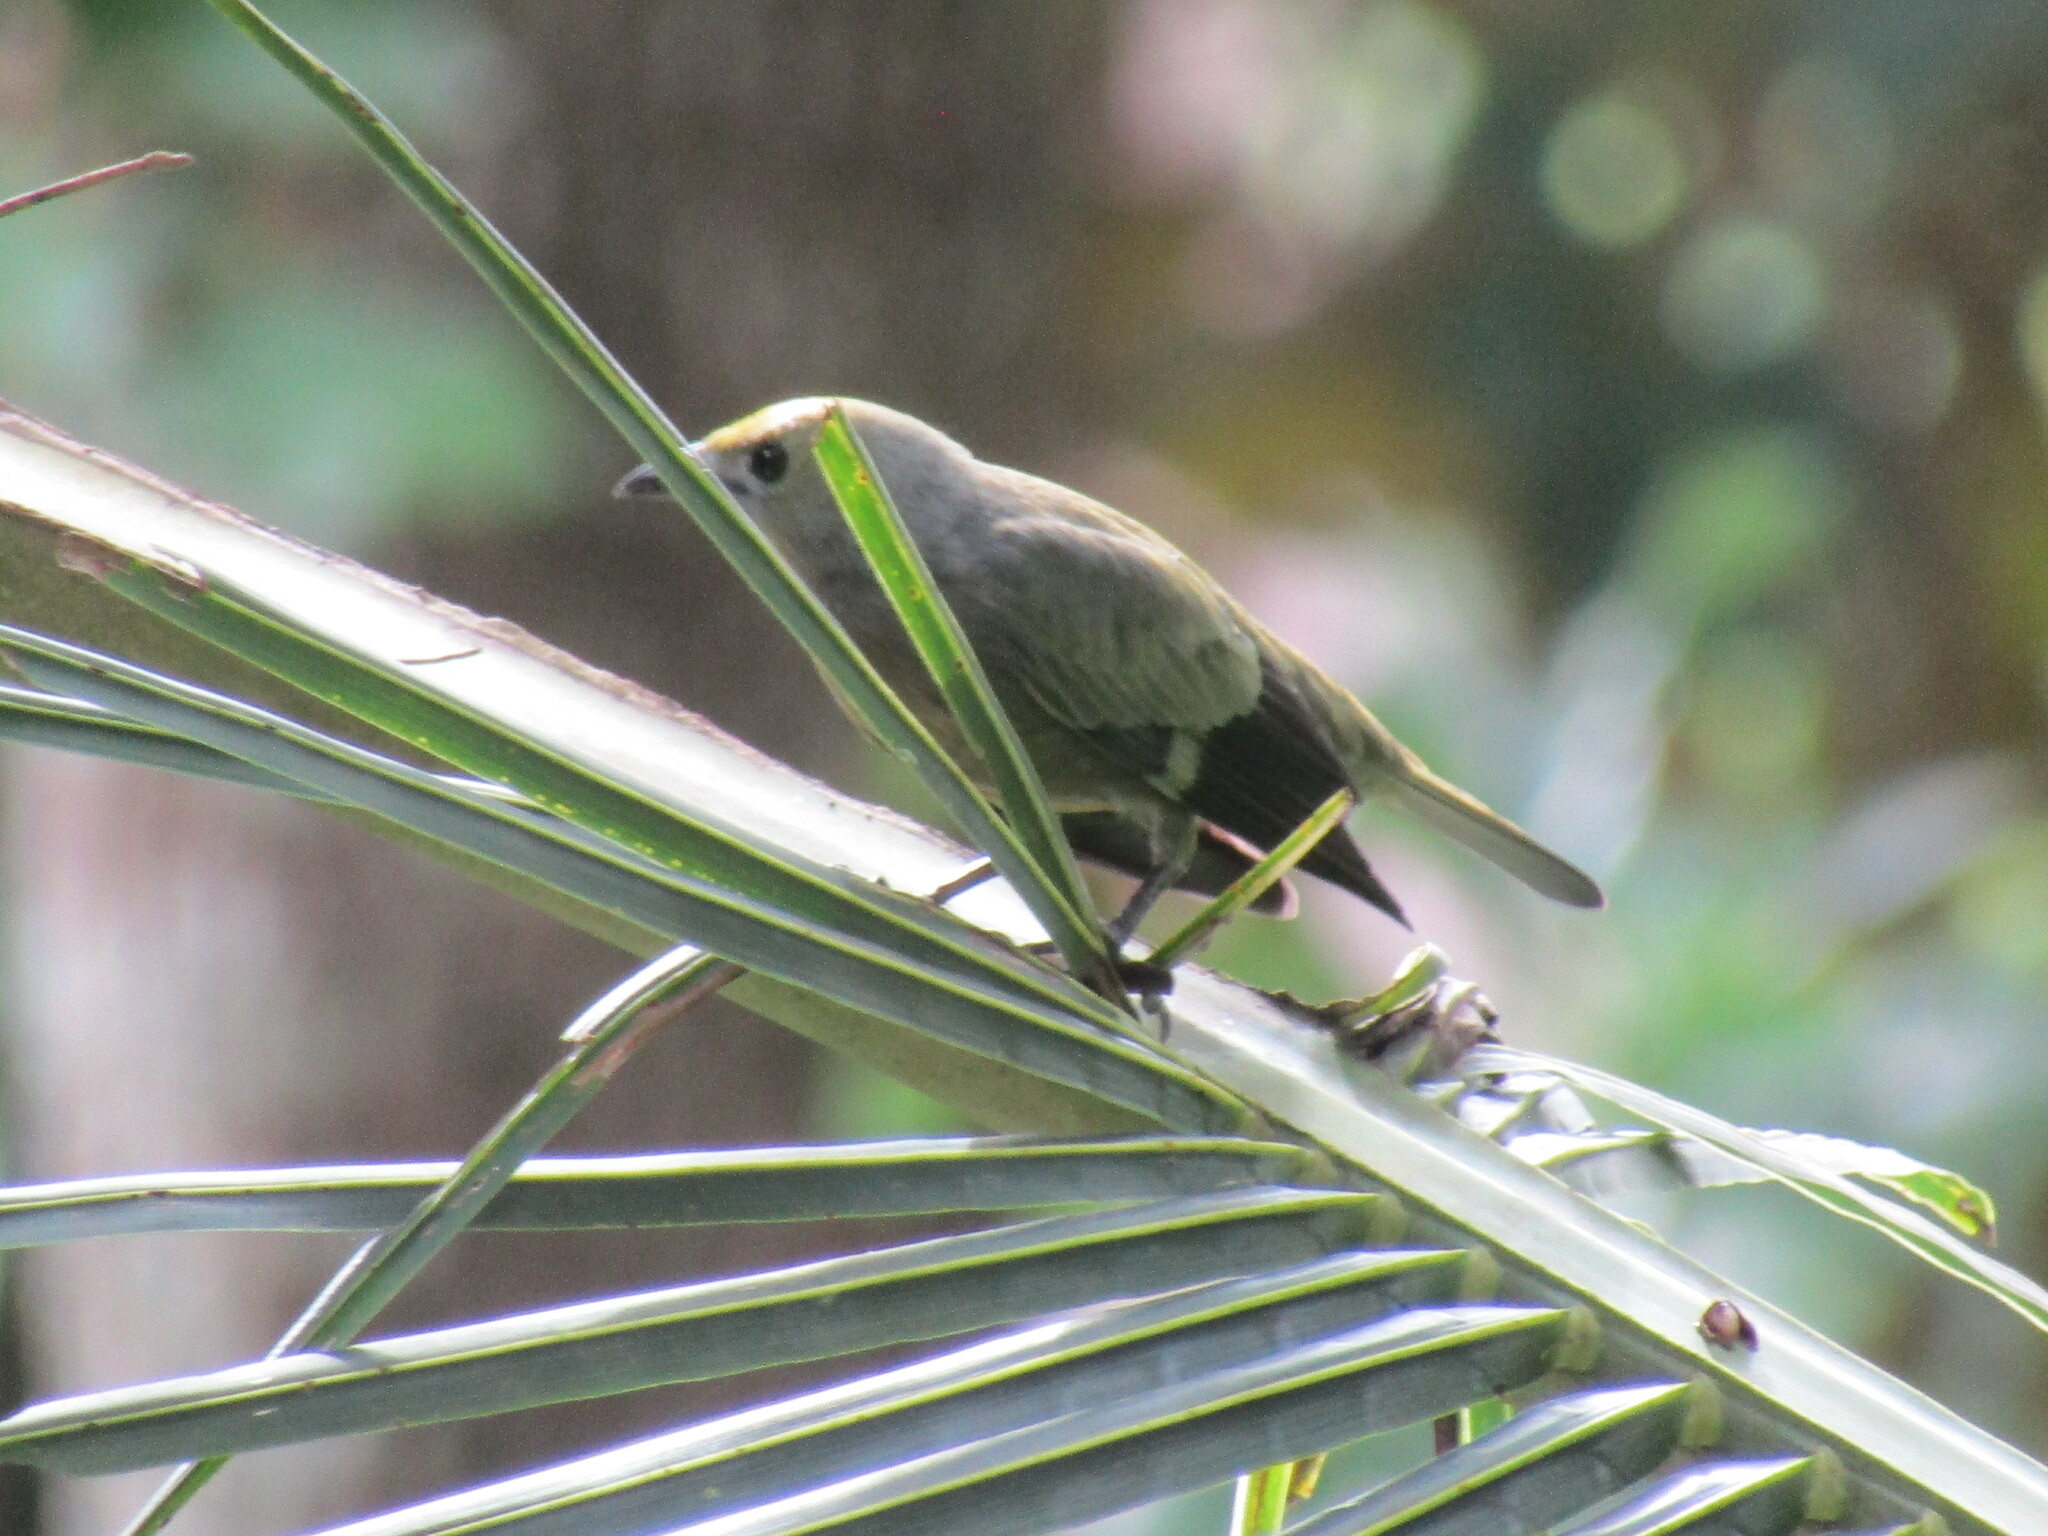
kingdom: Animalia
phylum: Chordata
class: Aves
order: Passeriformes
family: Thraupidae
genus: Thraupis
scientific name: Thraupis palmarum
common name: Palm tanager
